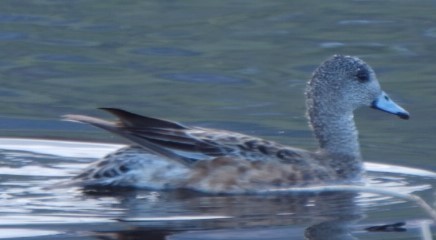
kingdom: Animalia
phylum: Chordata
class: Aves
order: Anseriformes
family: Anatidae
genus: Mareca
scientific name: Mareca americana
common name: American wigeon
